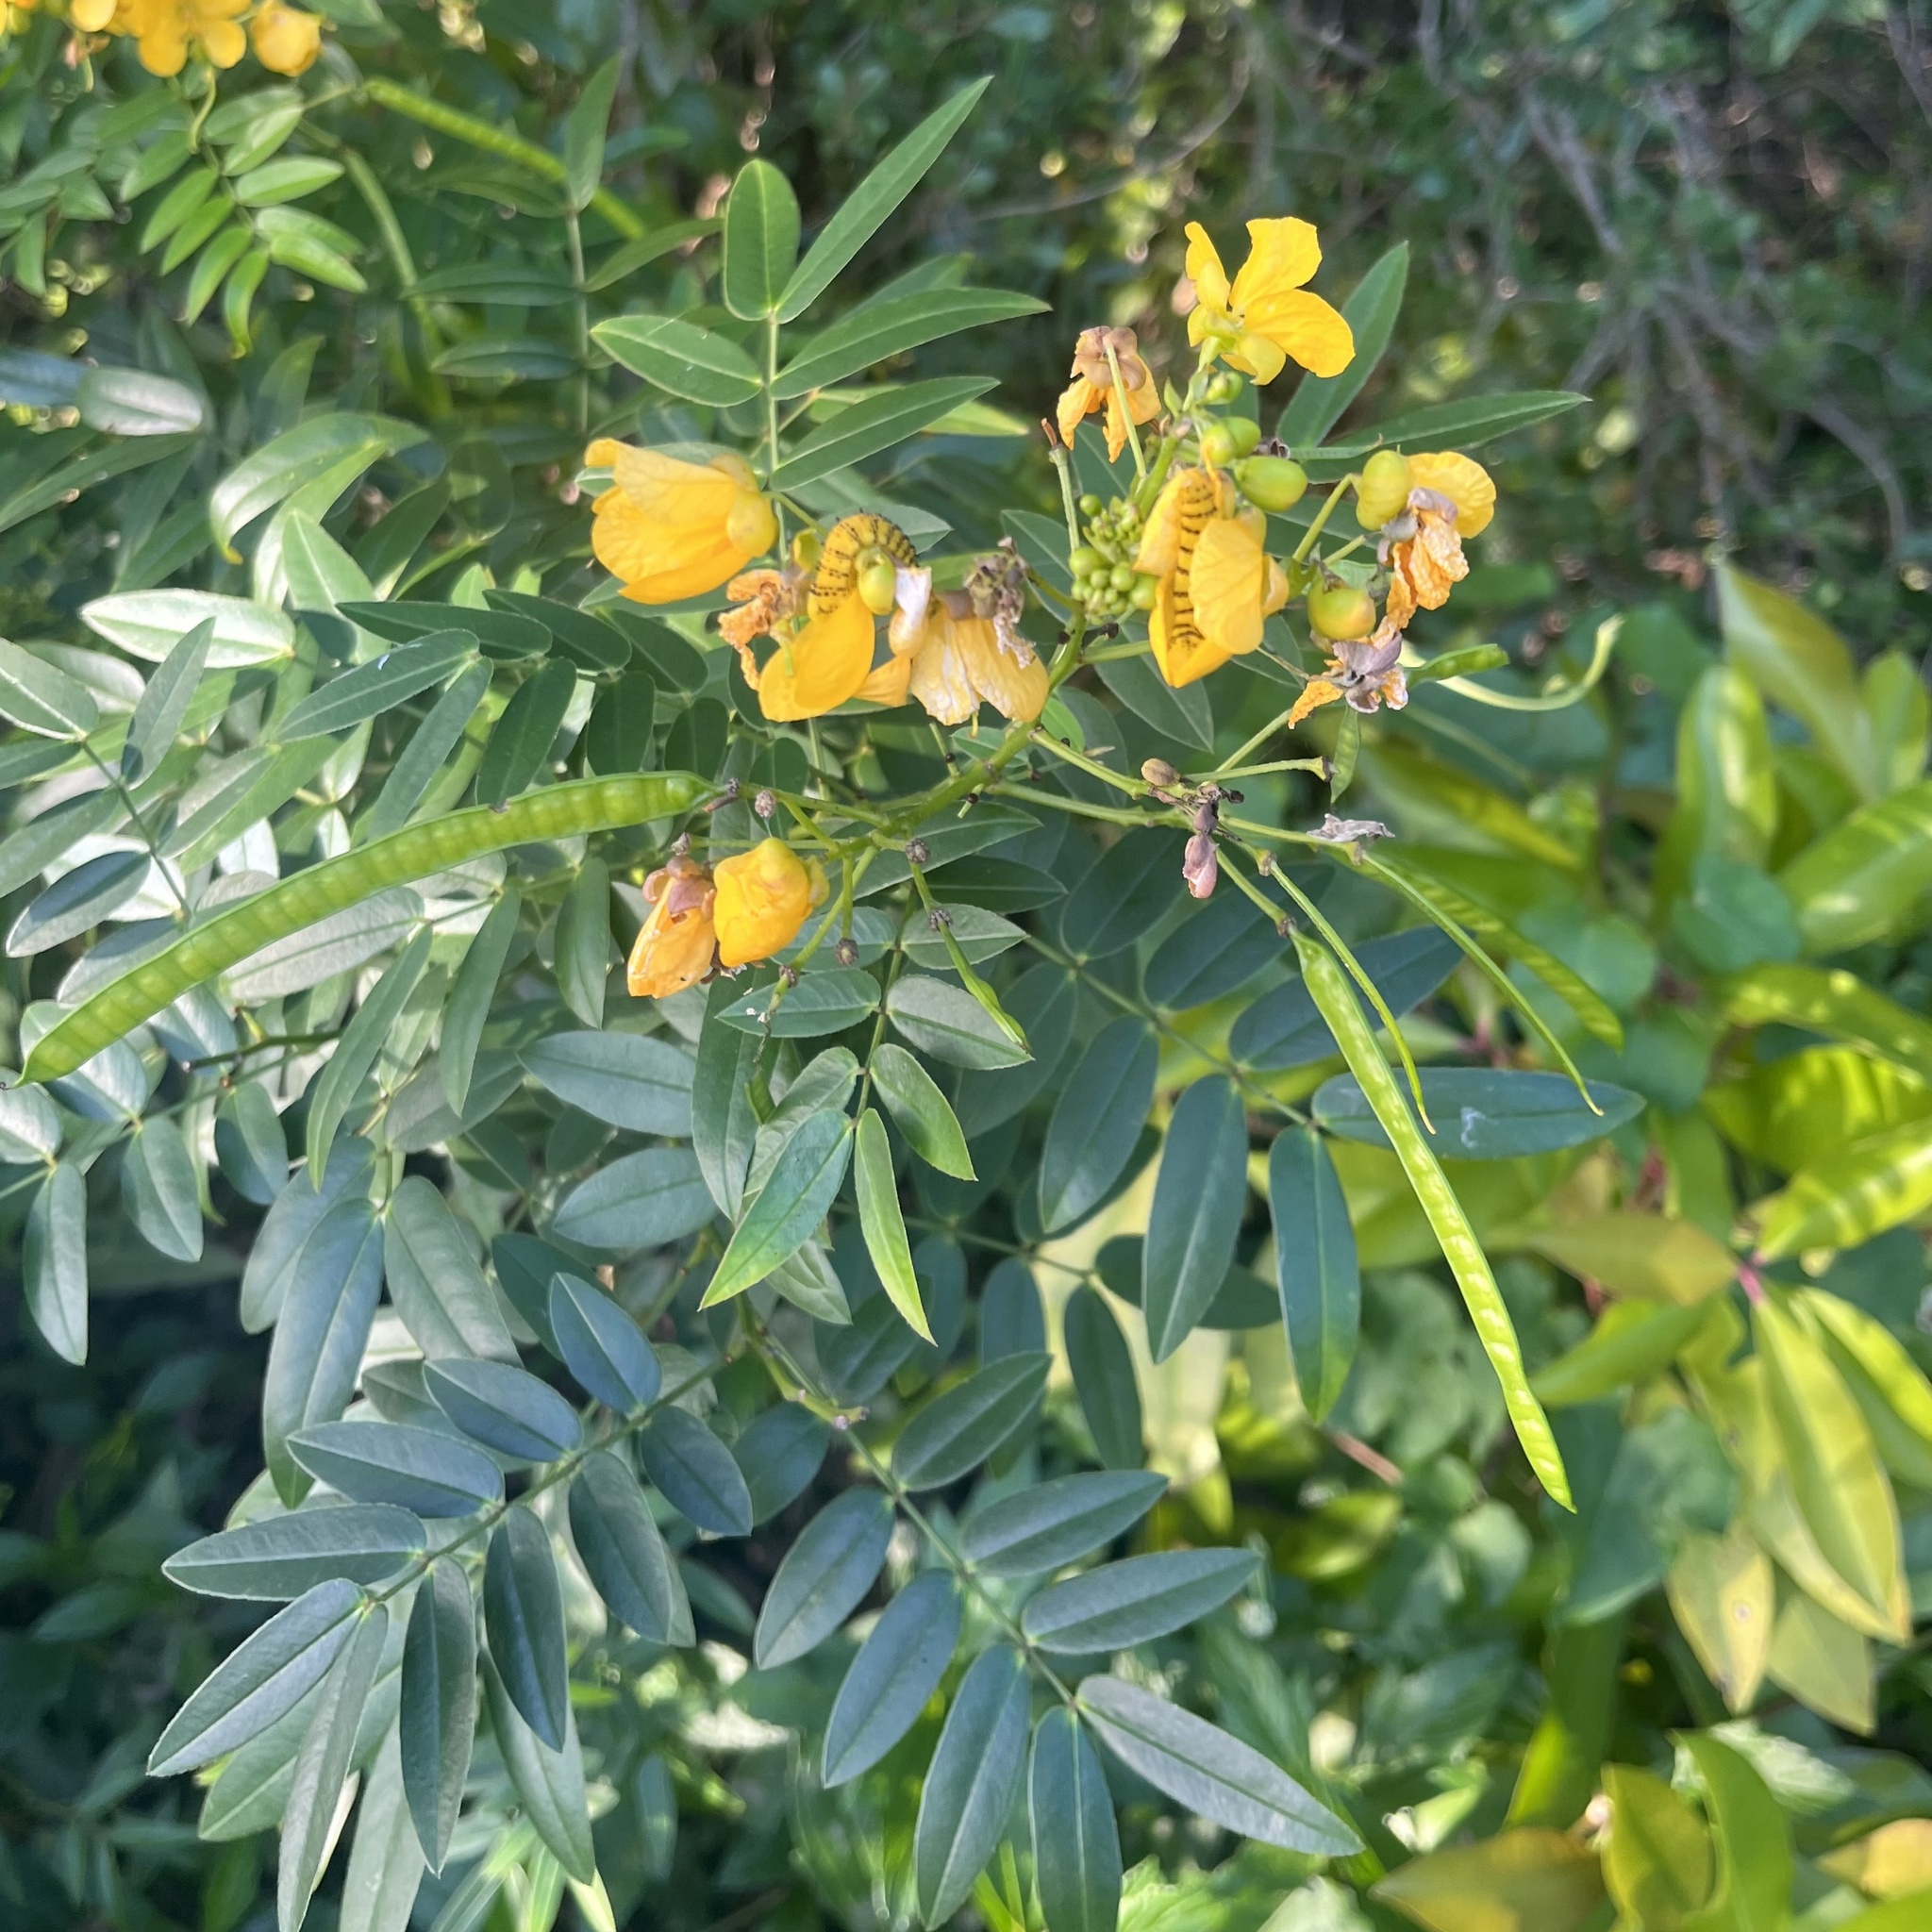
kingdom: Animalia
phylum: Arthropoda
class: Insecta
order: Lepidoptera
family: Pieridae
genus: Phoebis
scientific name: Phoebis philea
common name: Orange-barred giant sulphur
